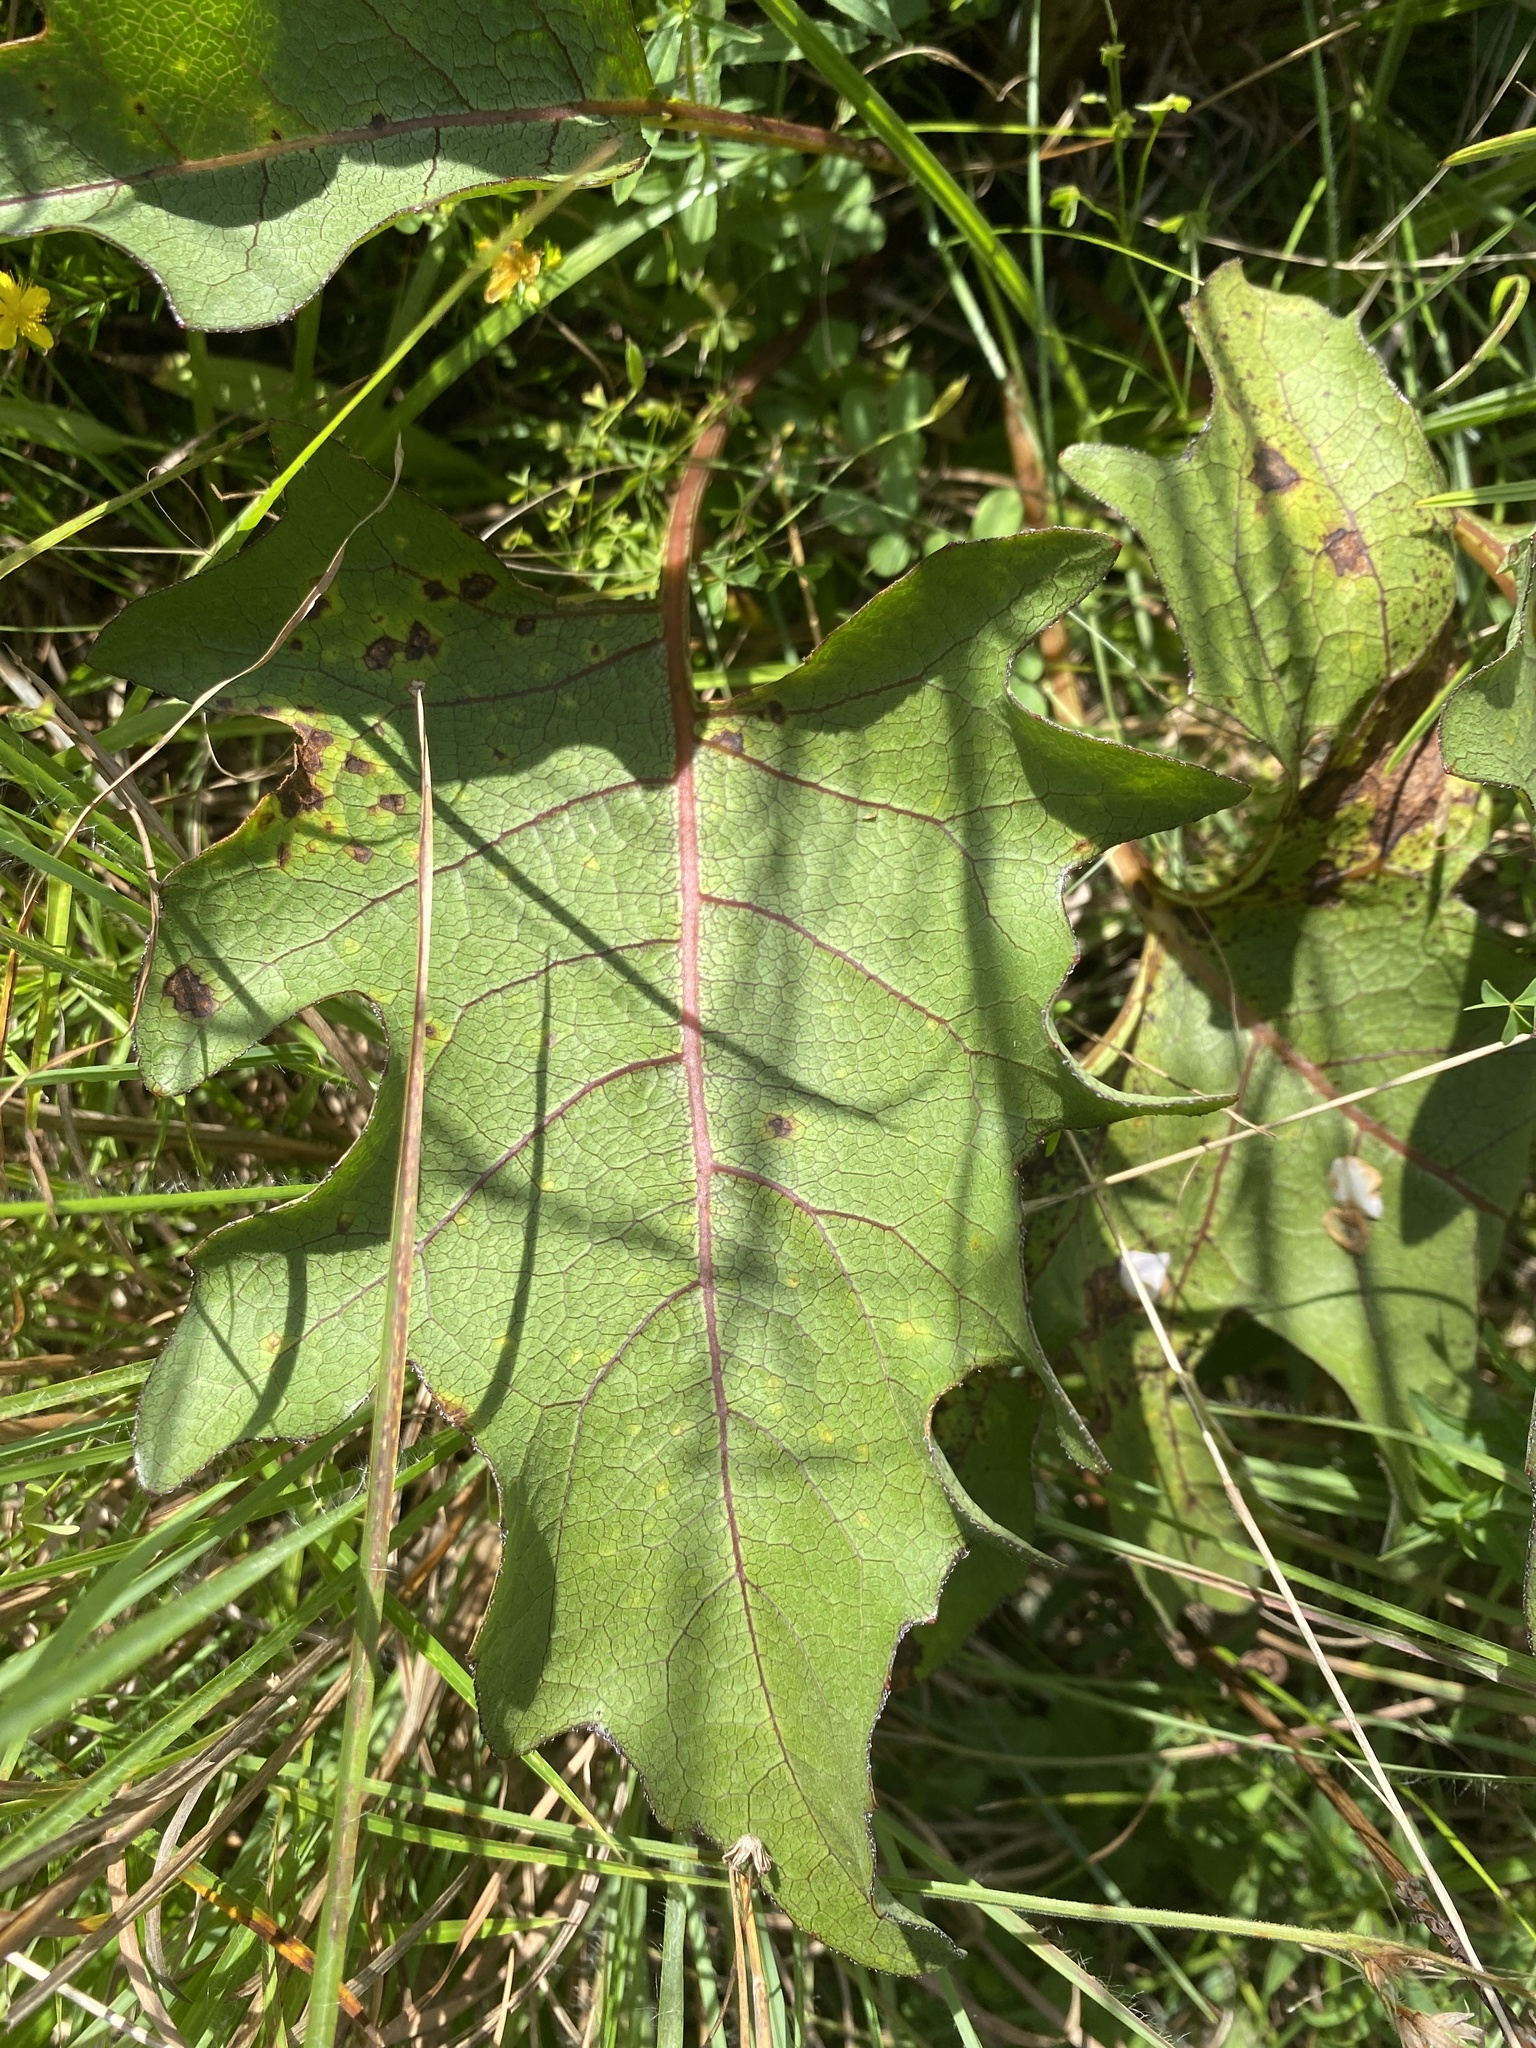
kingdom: Plantae
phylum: Tracheophyta
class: Magnoliopsida
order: Asterales
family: Asteraceae
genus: Silphium
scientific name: Silphium compositum
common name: Lesser basal-leaf rosinweed
